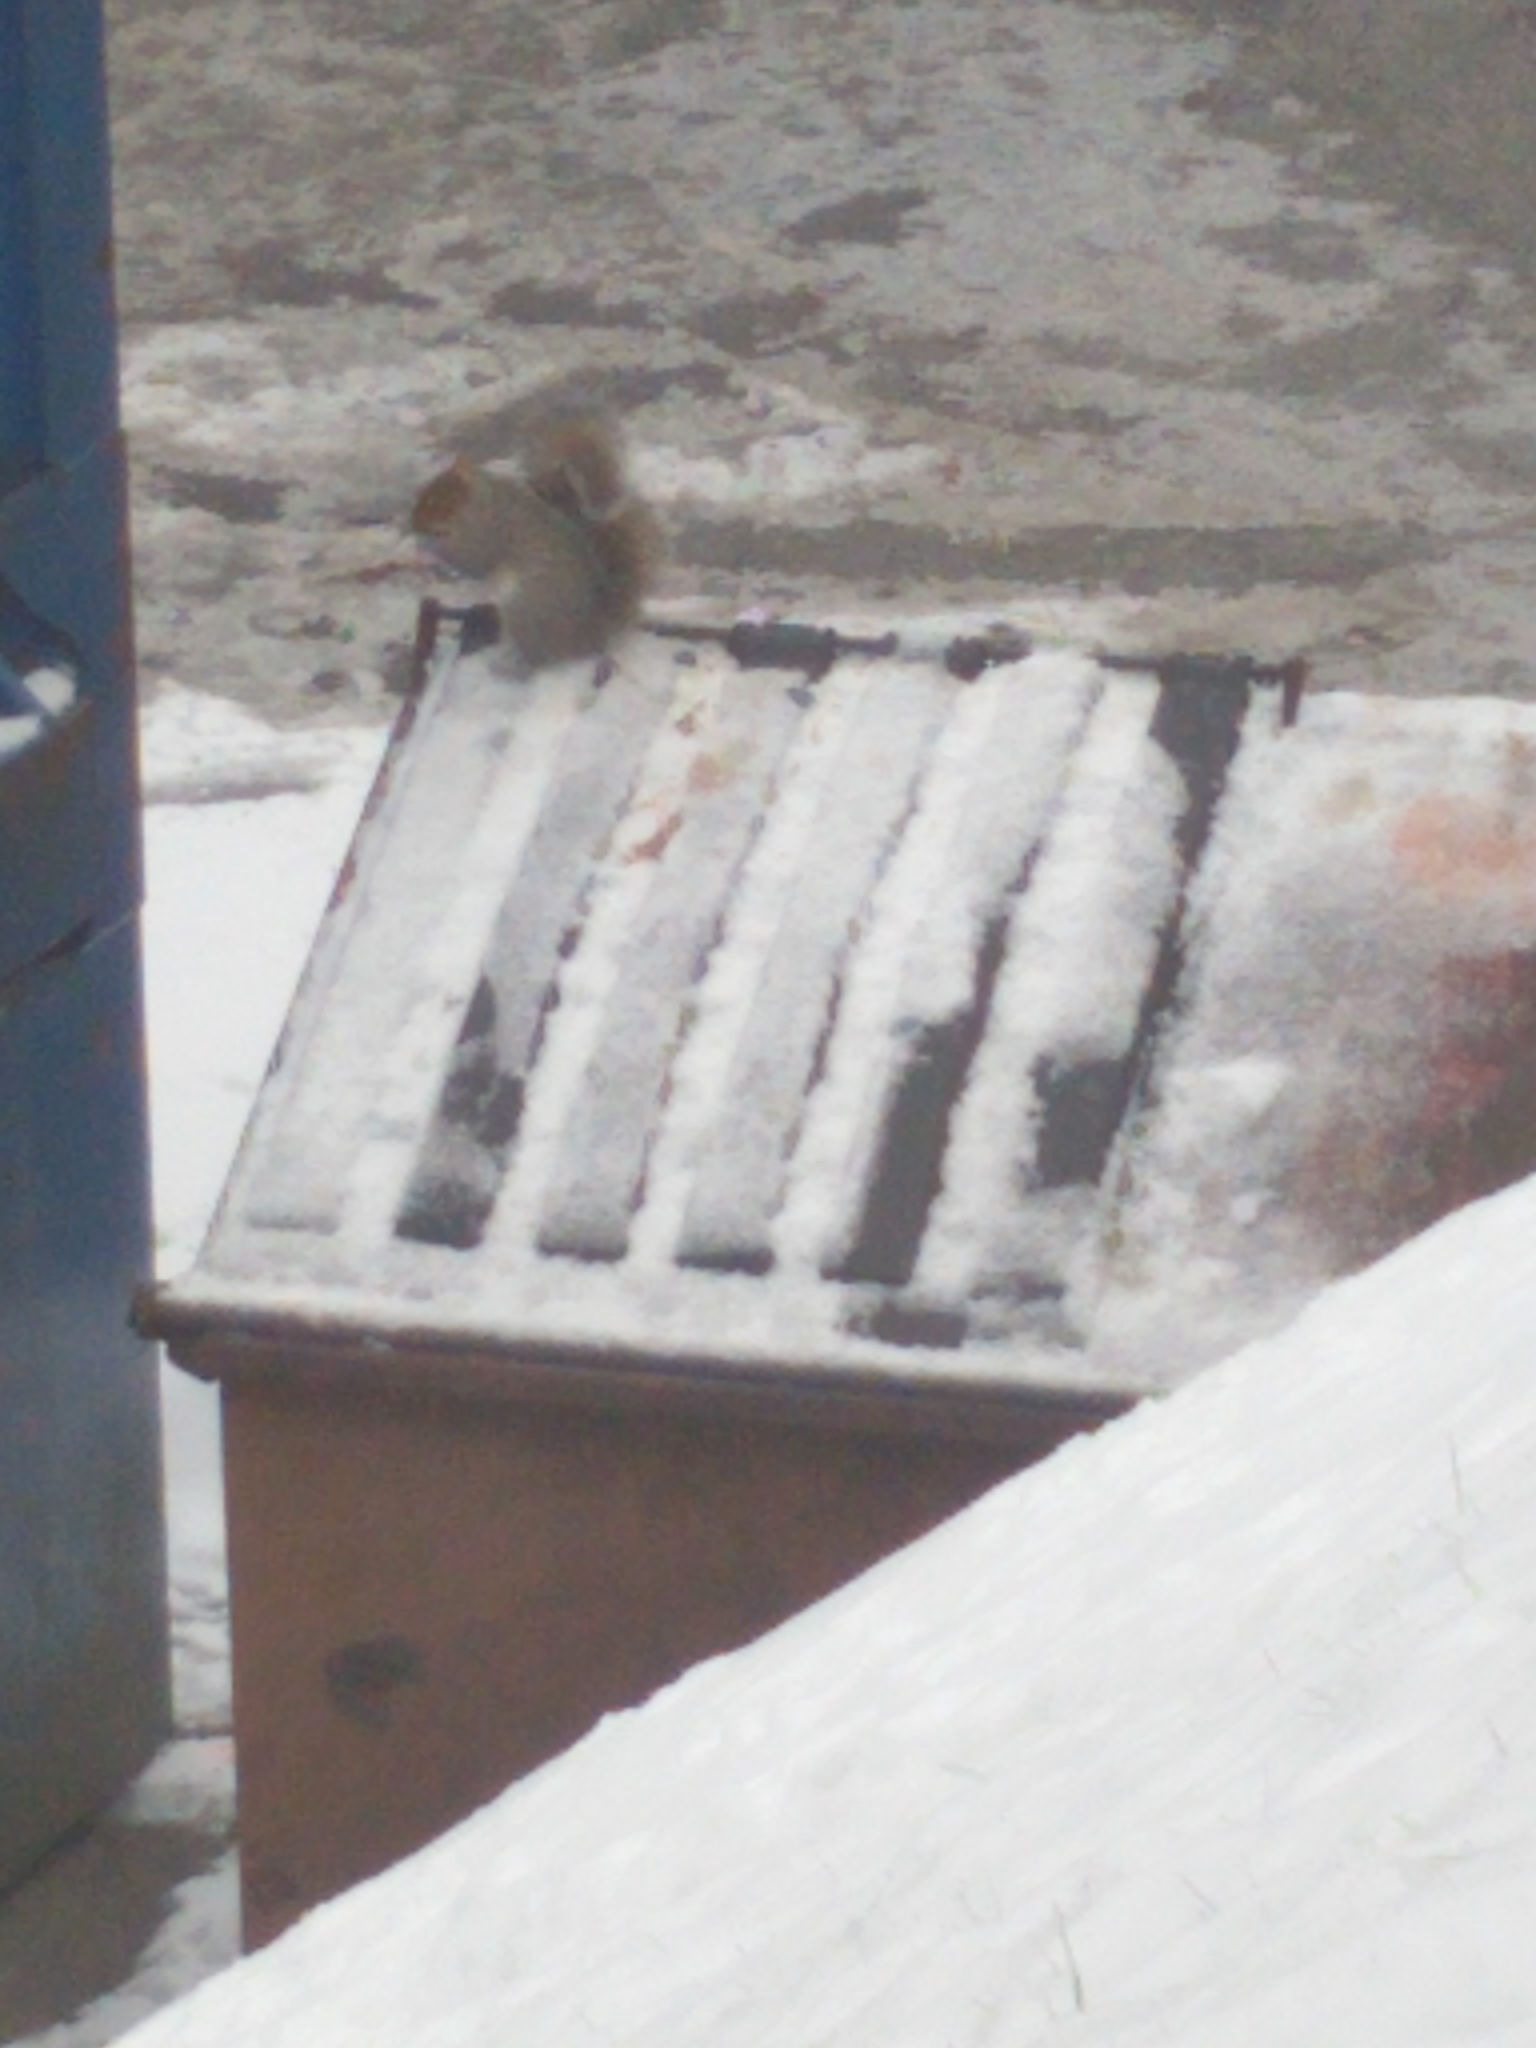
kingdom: Animalia
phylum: Chordata
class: Mammalia
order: Rodentia
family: Sciuridae
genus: Sciurus
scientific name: Sciurus carolinensis
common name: Eastern gray squirrel
